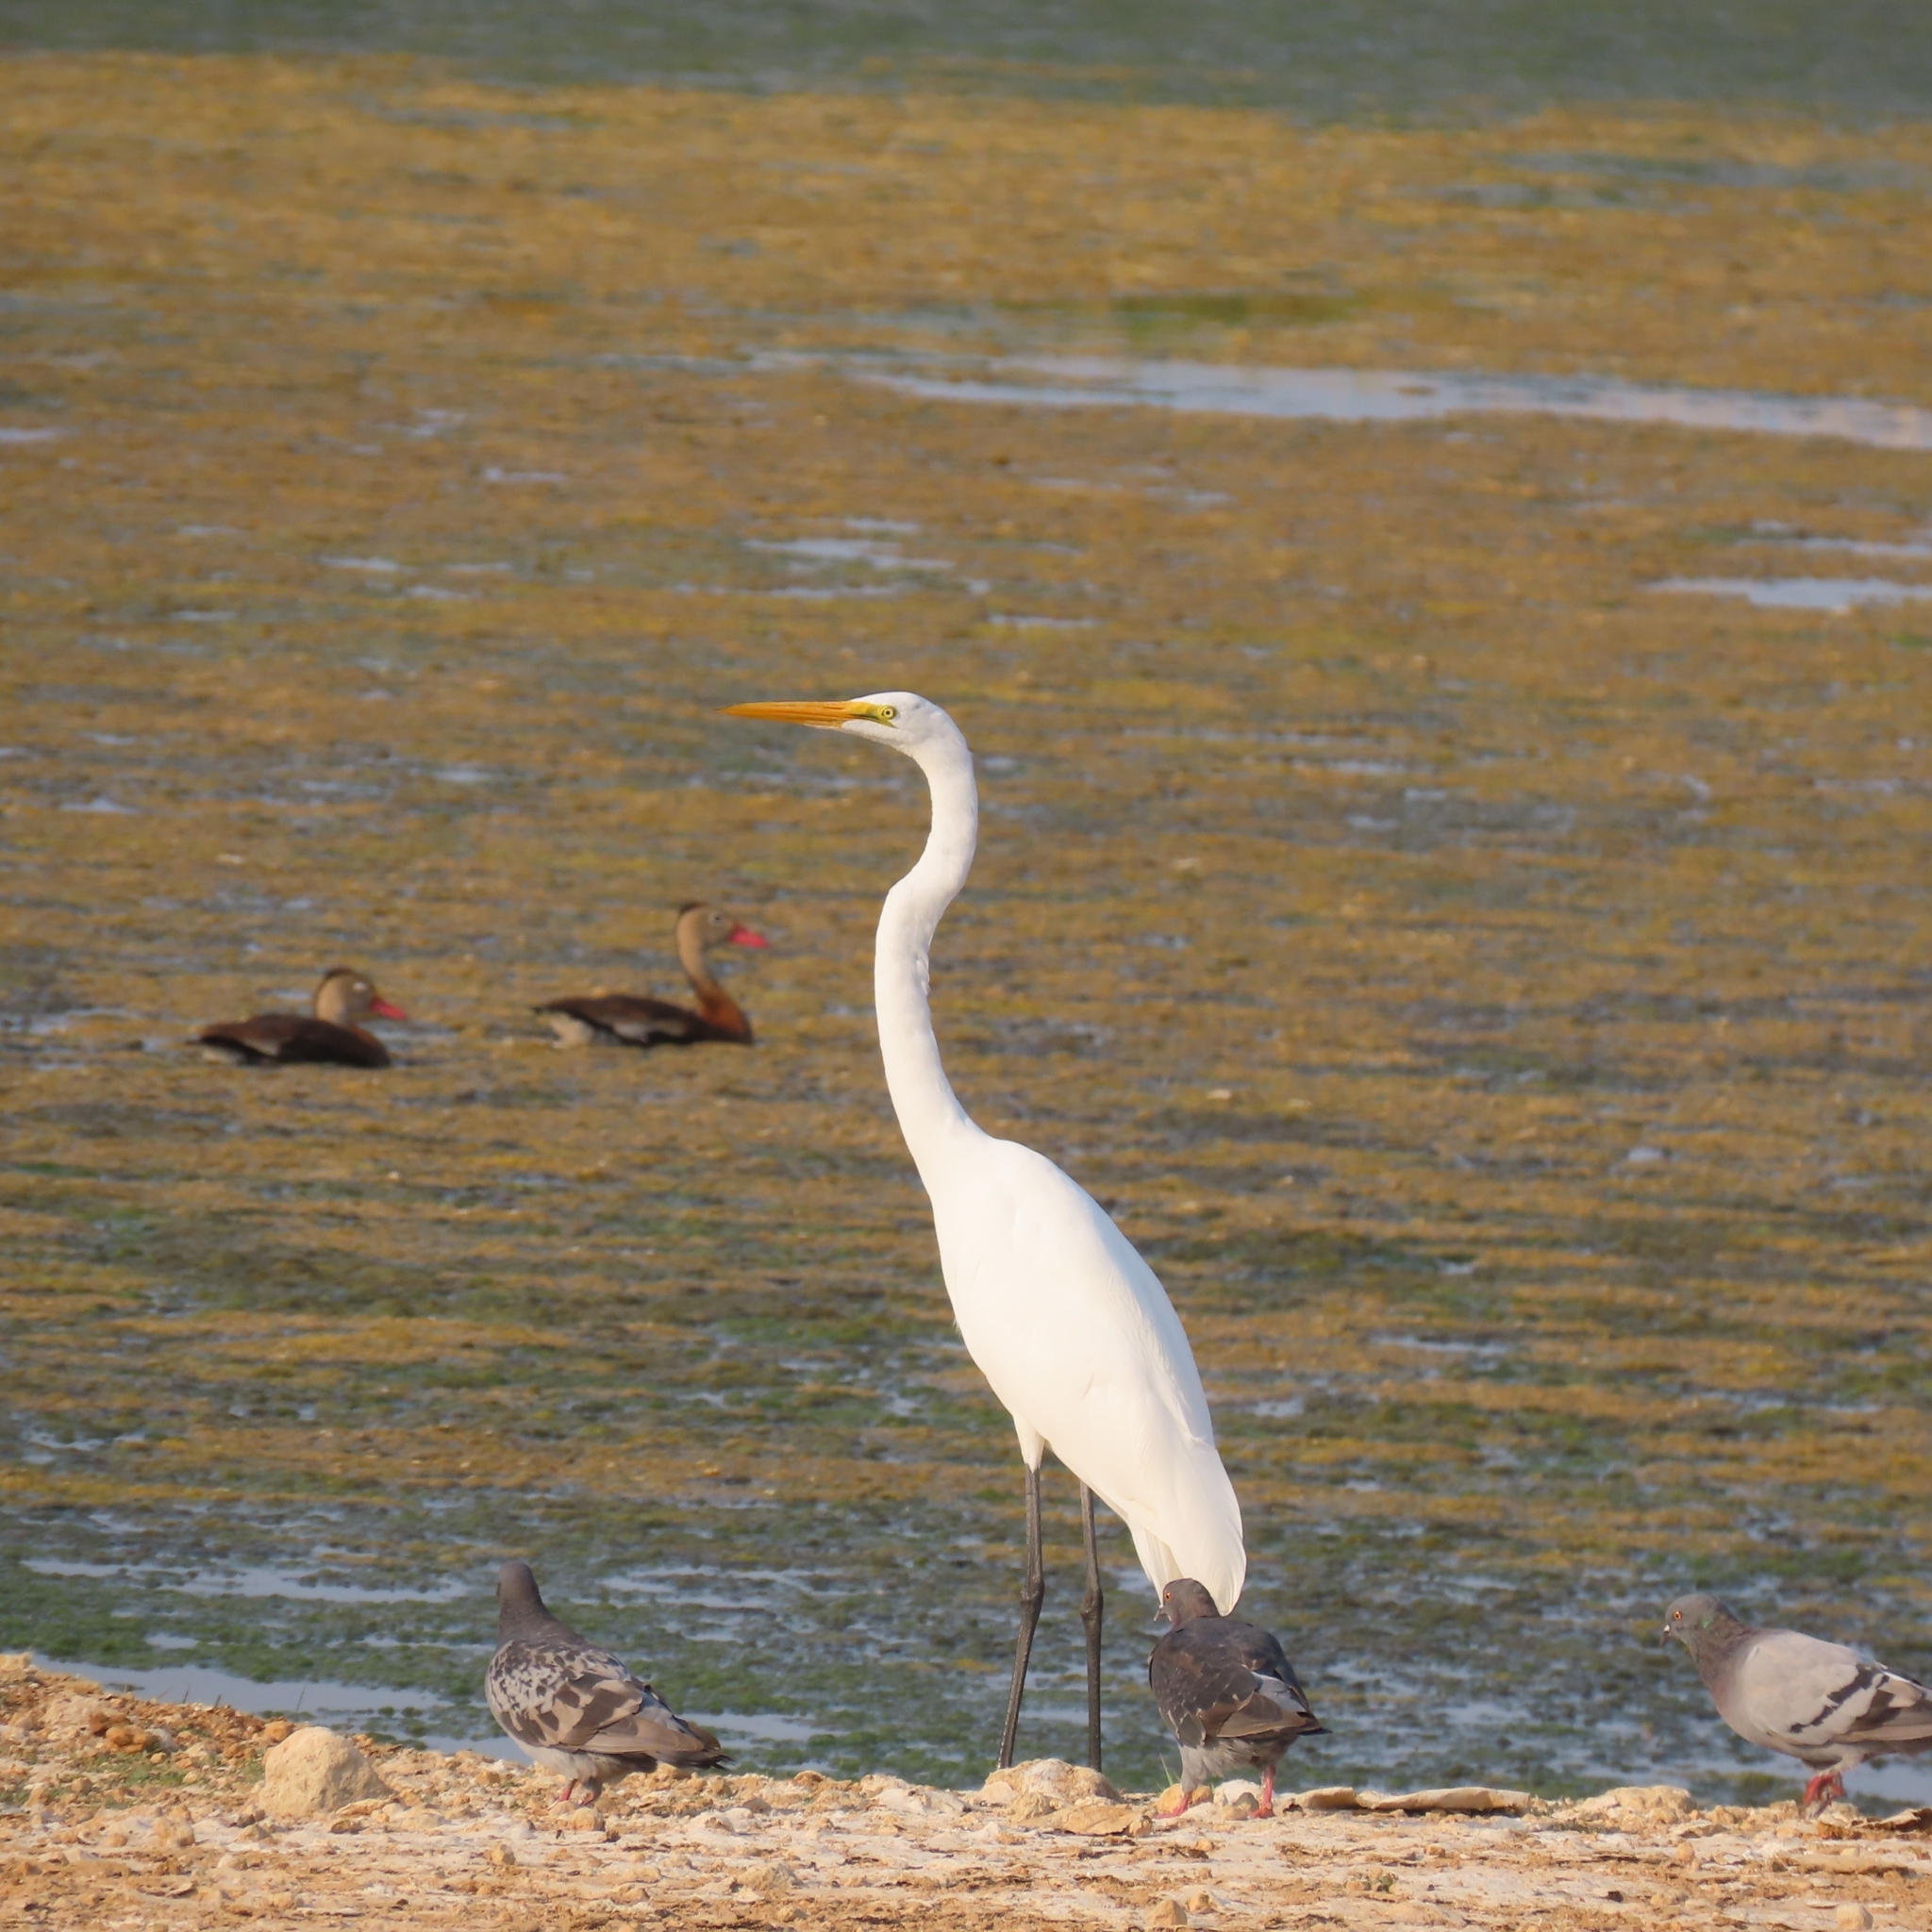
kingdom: Animalia
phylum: Chordata
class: Aves
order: Pelecaniformes
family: Ardeidae
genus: Ardea
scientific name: Ardea alba
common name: Great egret
